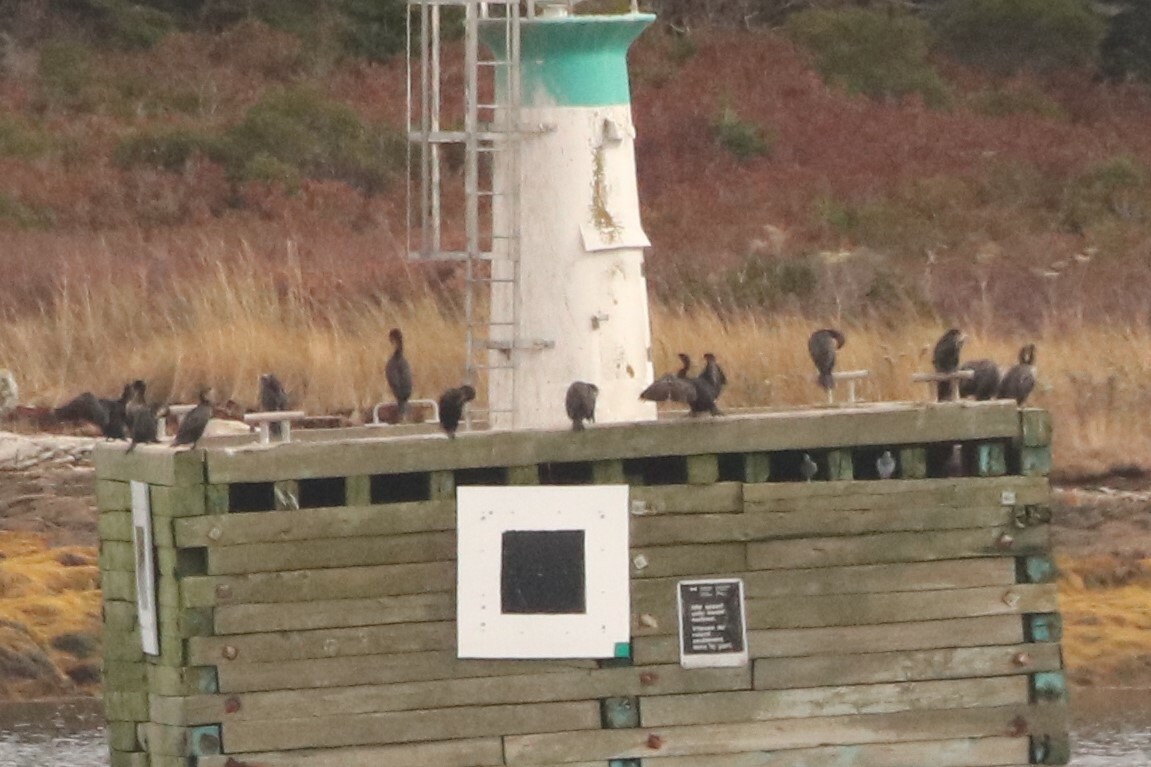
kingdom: Animalia
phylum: Chordata
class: Aves
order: Suliformes
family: Phalacrocoracidae
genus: Phalacrocorax
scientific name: Phalacrocorax auritus
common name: Double-crested cormorant
